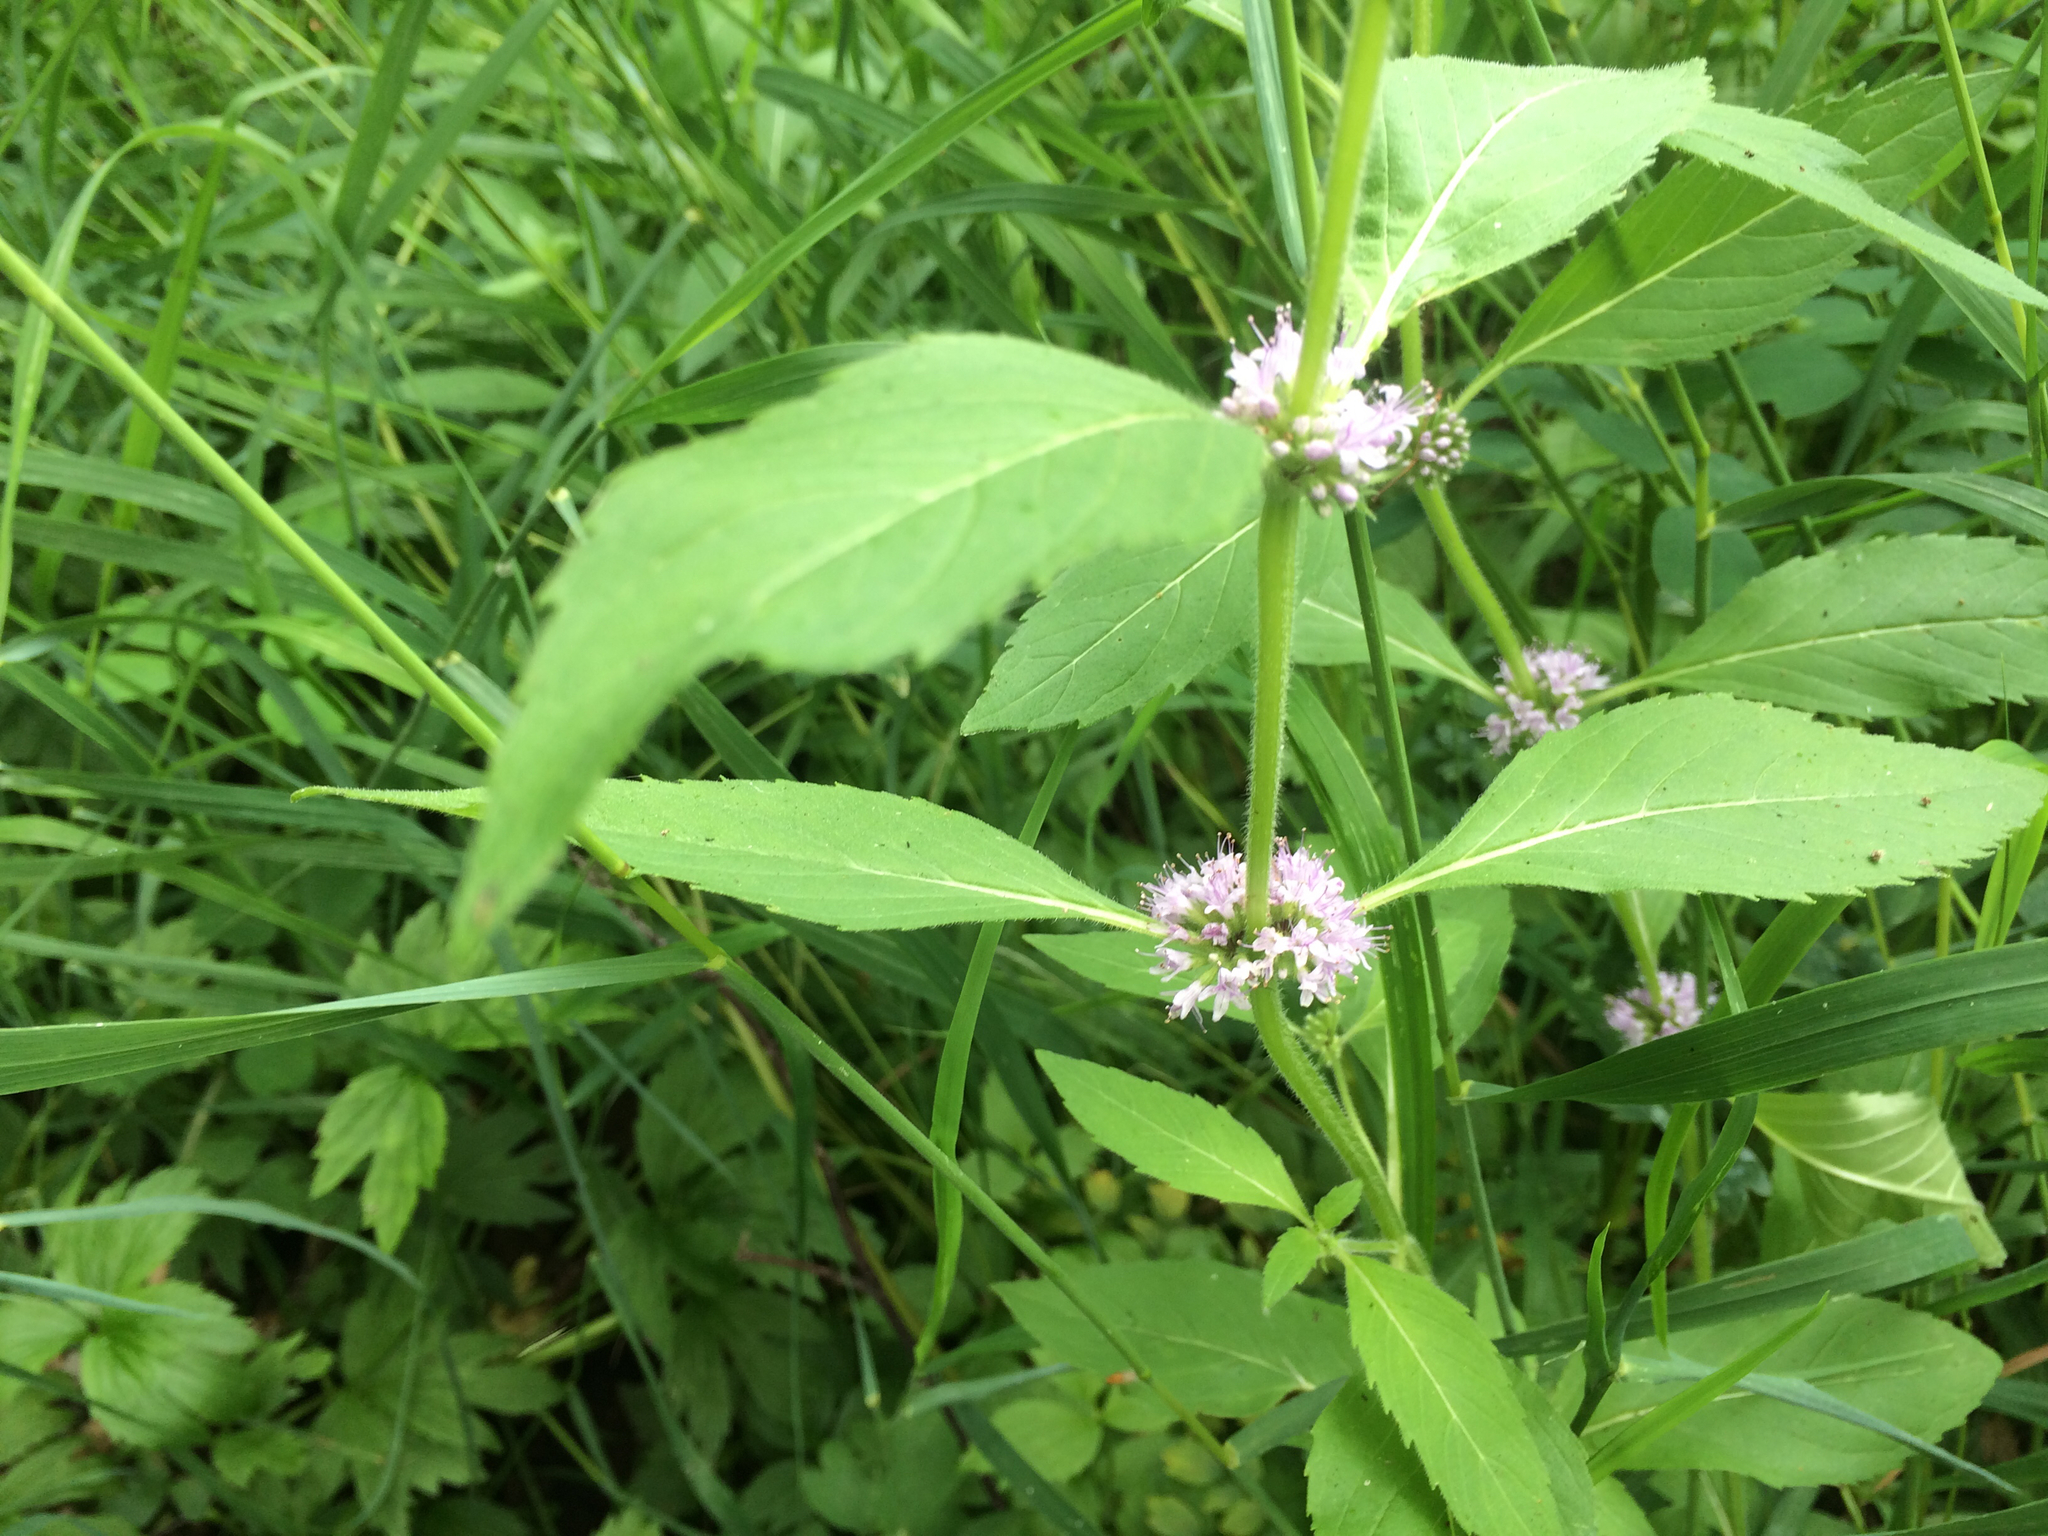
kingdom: Plantae
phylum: Tracheophyta
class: Magnoliopsida
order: Lamiales
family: Lamiaceae
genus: Mentha
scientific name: Mentha canadensis
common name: American corn mint
